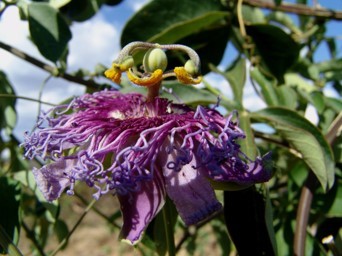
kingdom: Plantae
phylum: Tracheophyta
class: Magnoliopsida
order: Malpighiales
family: Passifloraceae
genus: Passiflora
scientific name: Passiflora cincinnata
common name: Crato passionvine
